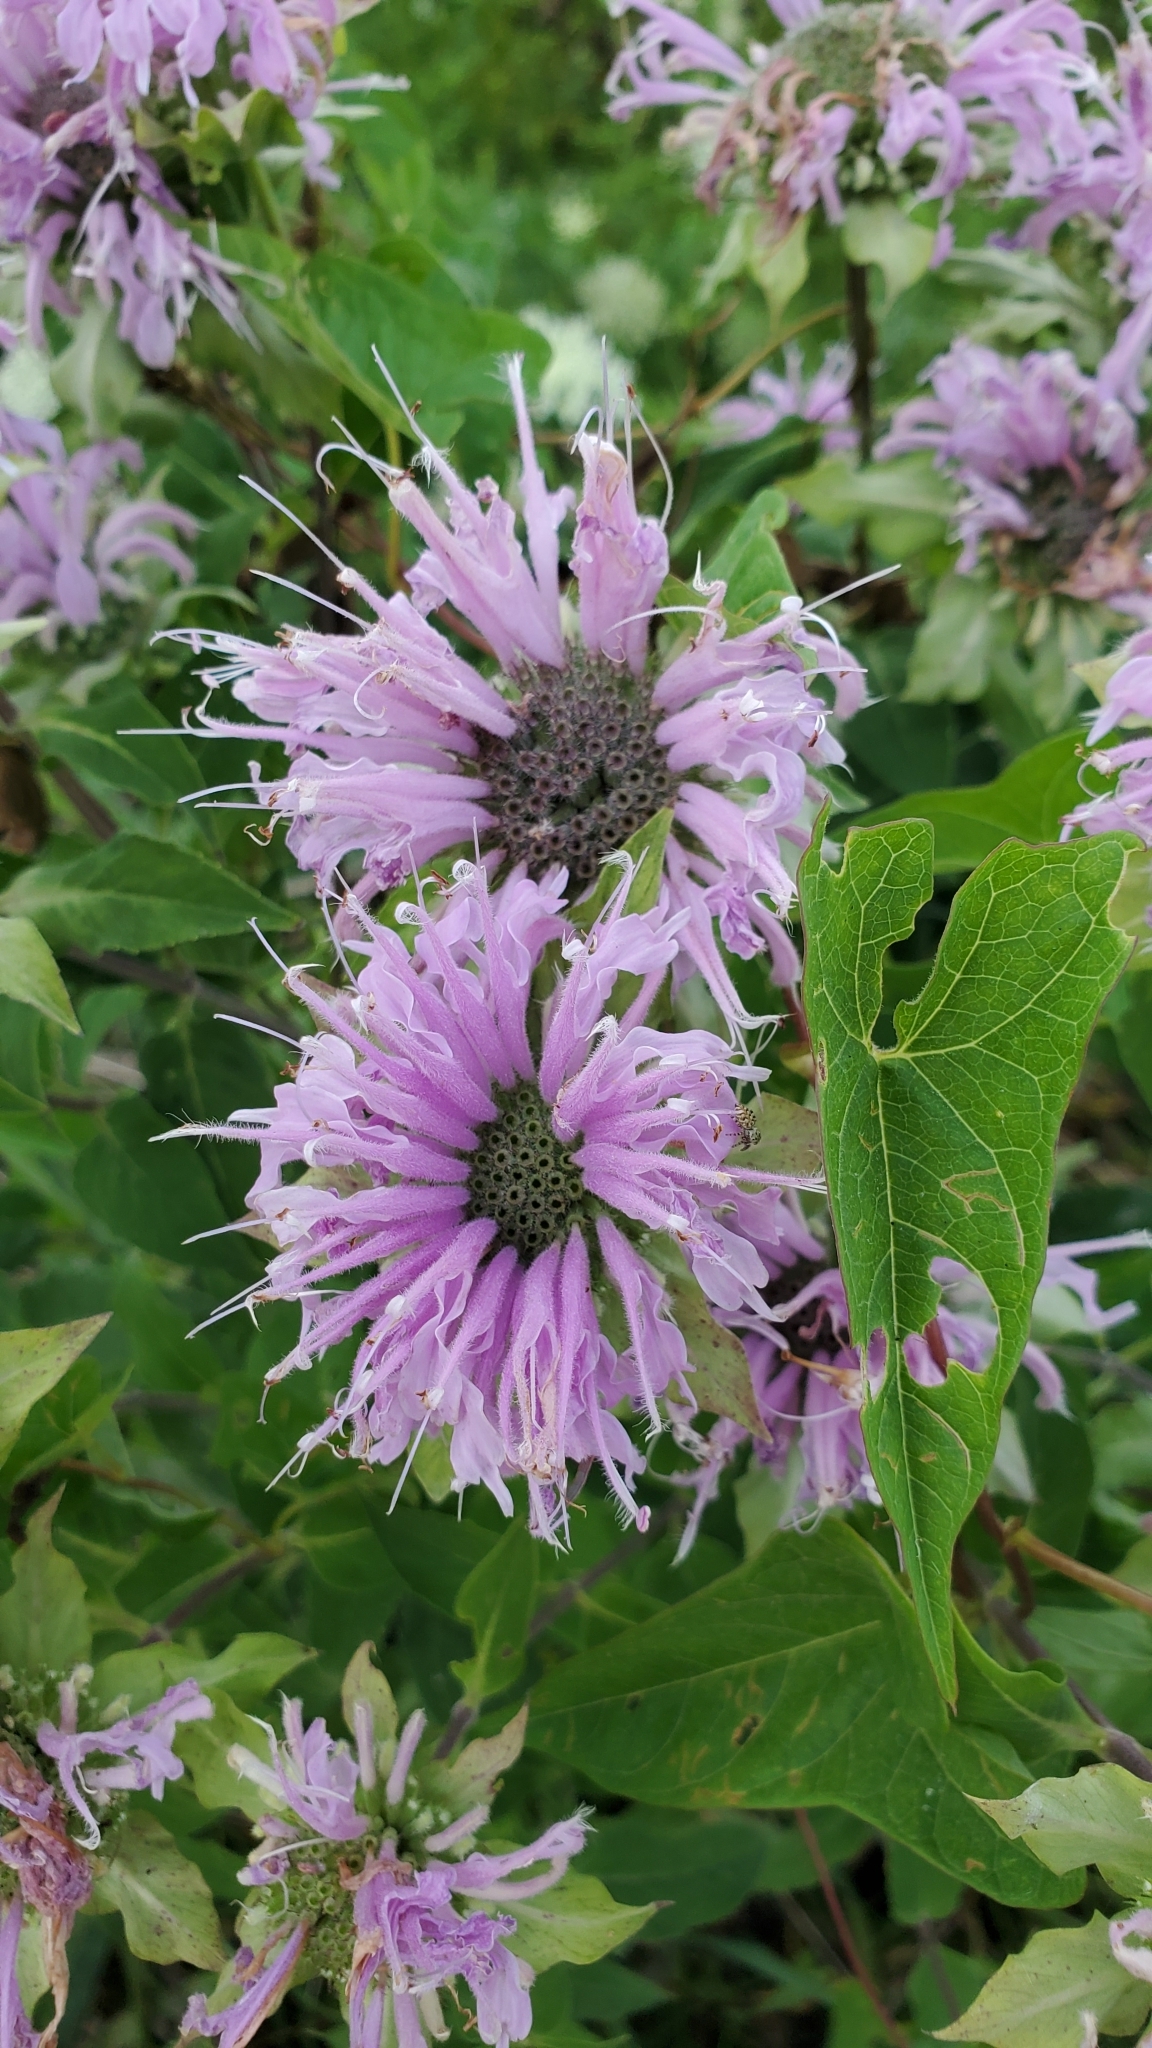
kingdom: Plantae
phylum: Tracheophyta
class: Magnoliopsida
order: Lamiales
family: Lamiaceae
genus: Monarda
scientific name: Monarda fistulosa
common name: Purple beebalm
